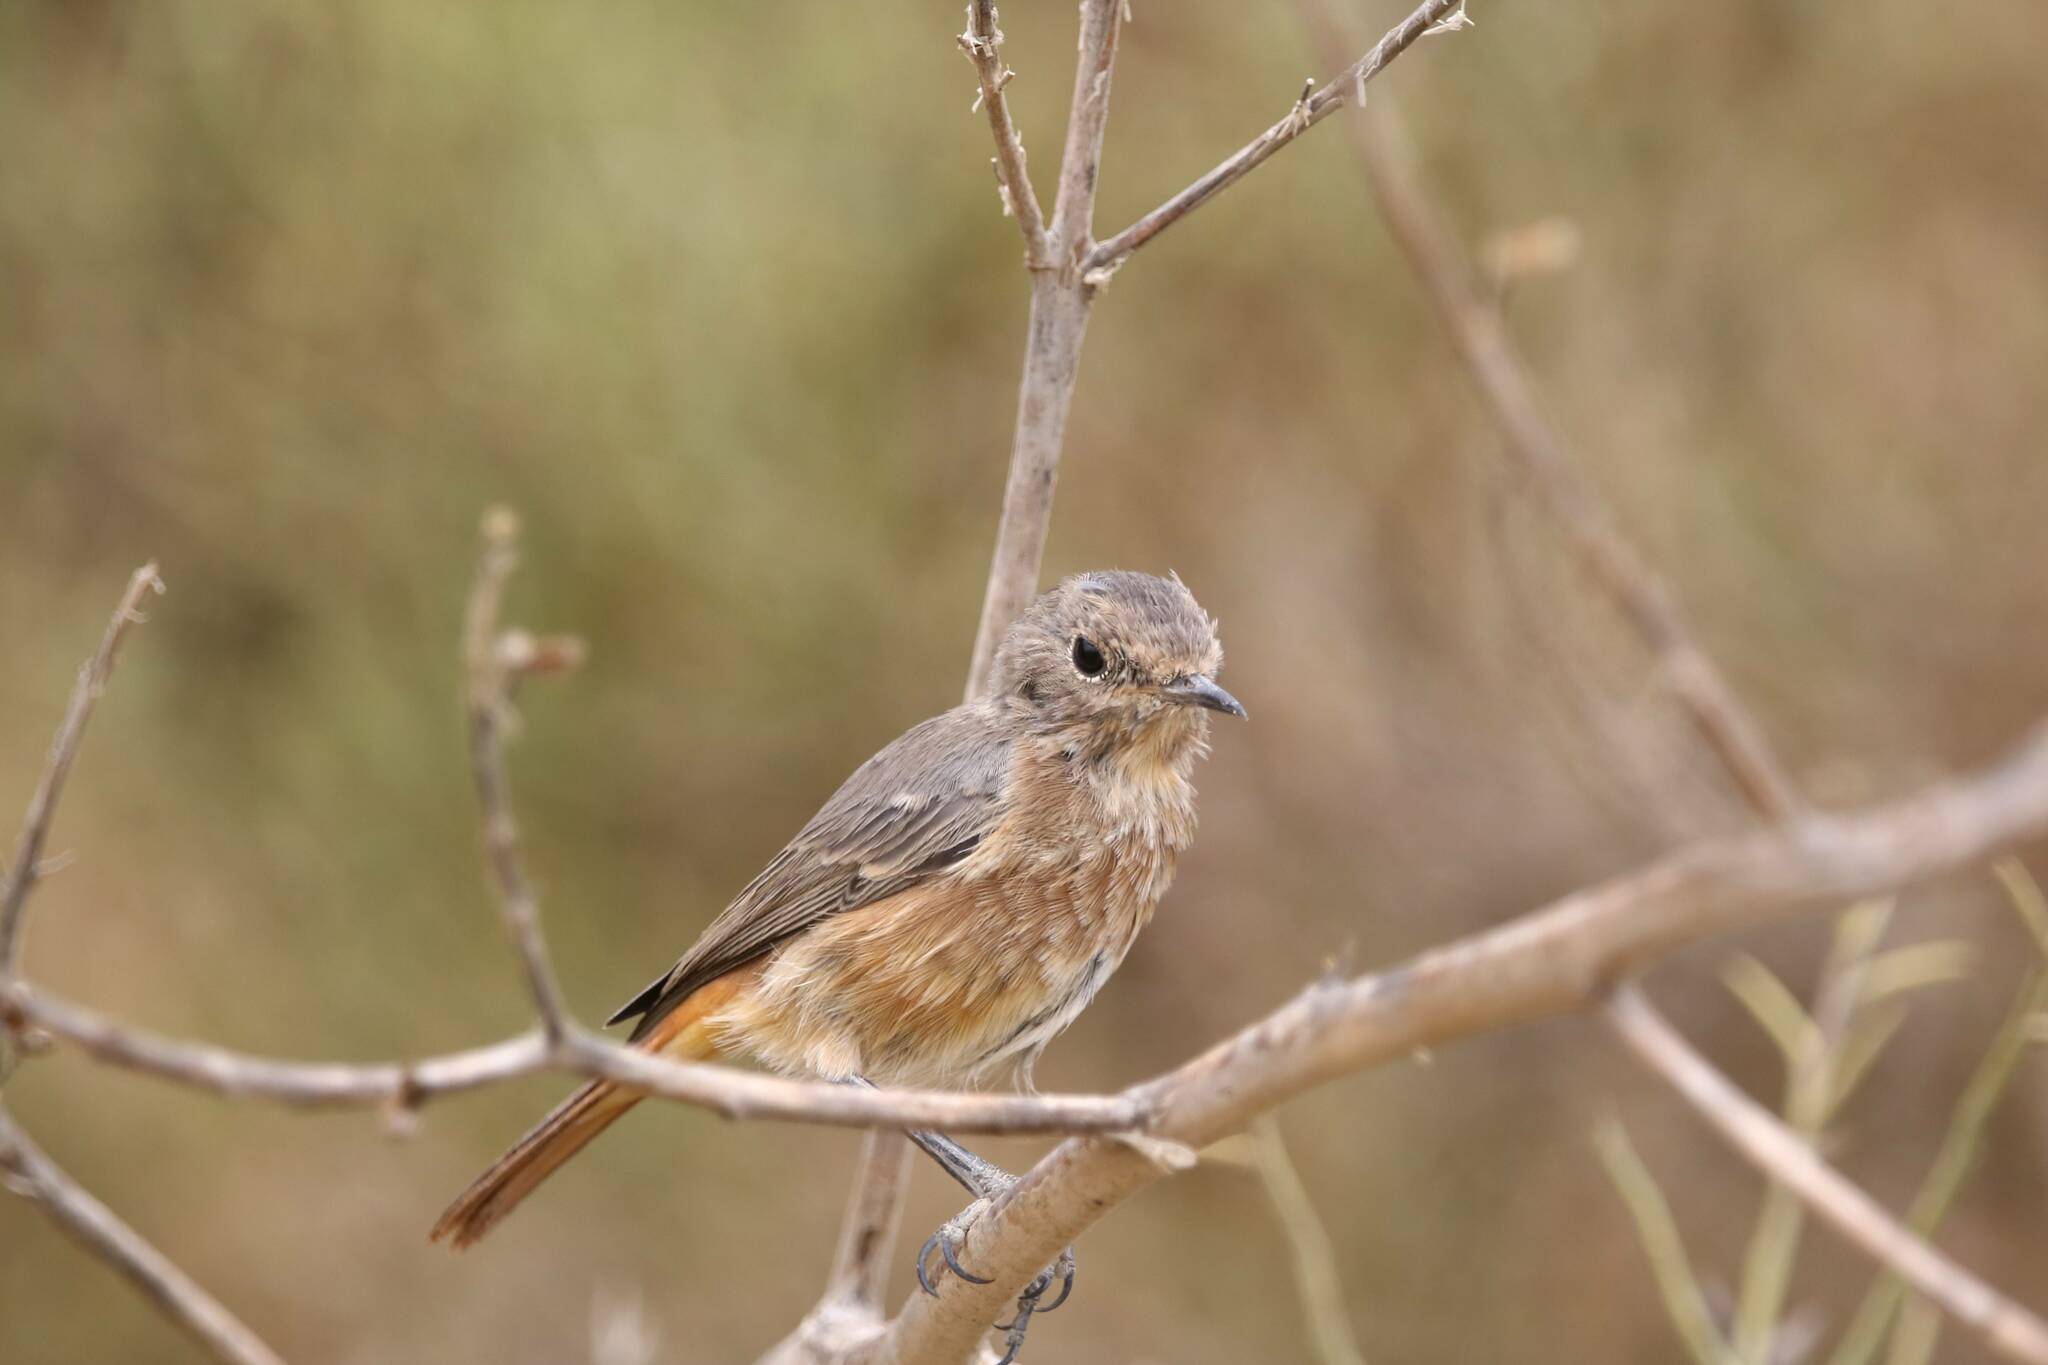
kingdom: Animalia
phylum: Chordata
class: Aves
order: Passeriformes
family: Muscicapidae
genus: Phoenicurus
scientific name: Phoenicurus moussieri
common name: Moussier's redstart
